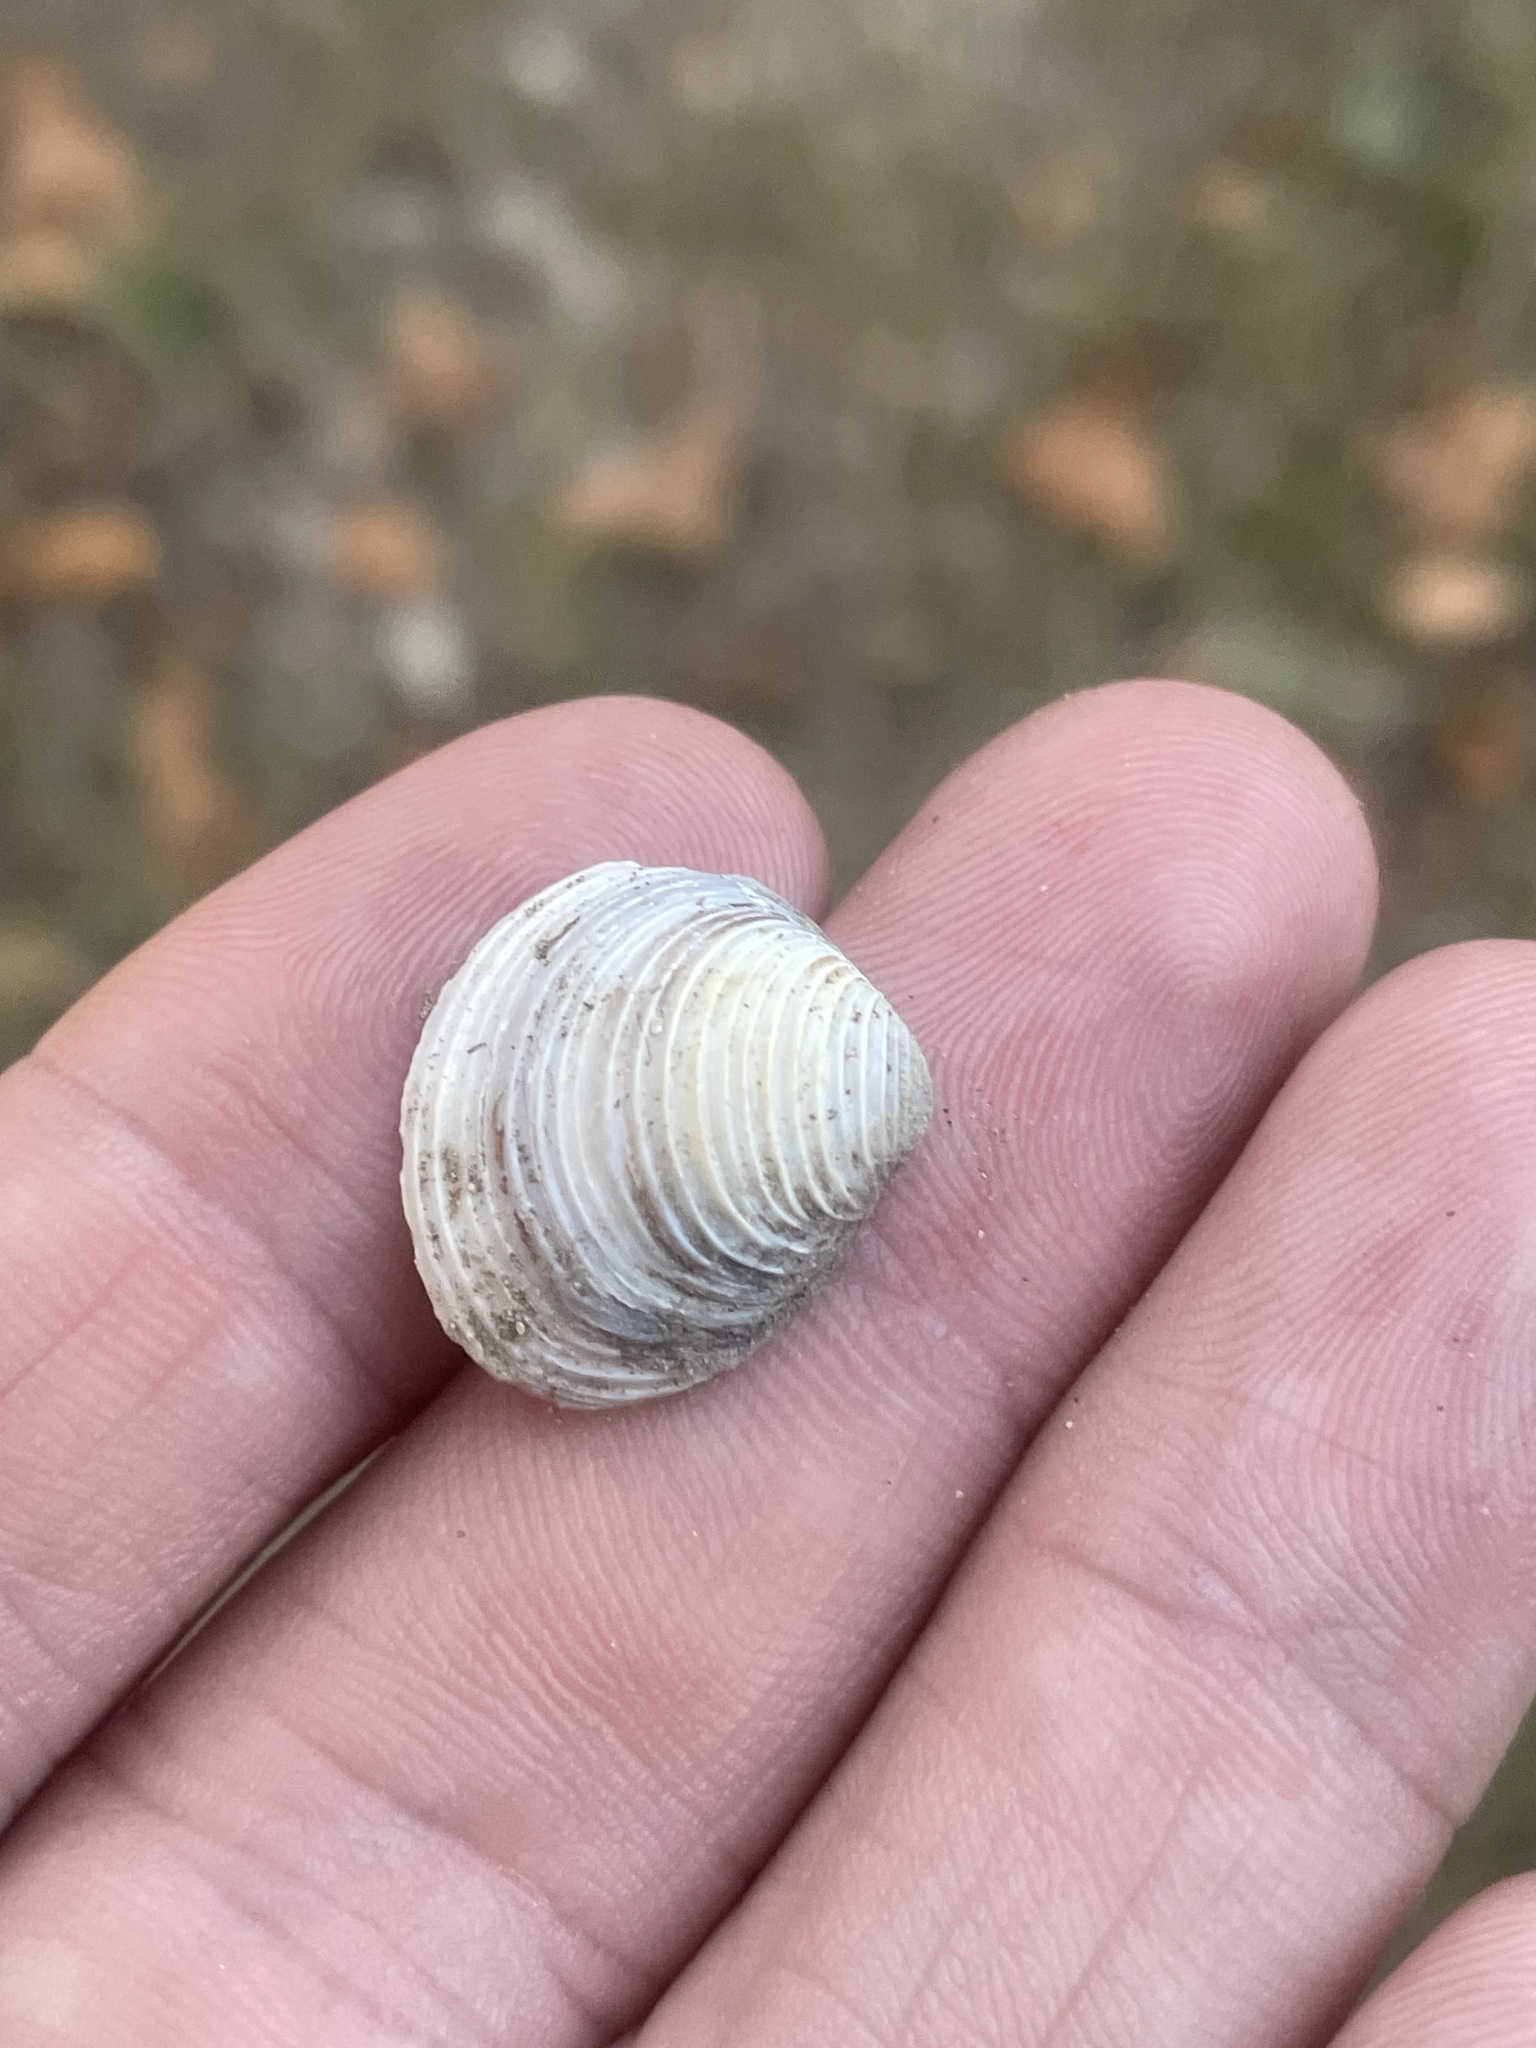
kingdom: Animalia
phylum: Mollusca
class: Bivalvia
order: Venerida
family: Cyrenidae
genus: Corbicula
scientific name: Corbicula fluminea
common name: Asian clam
